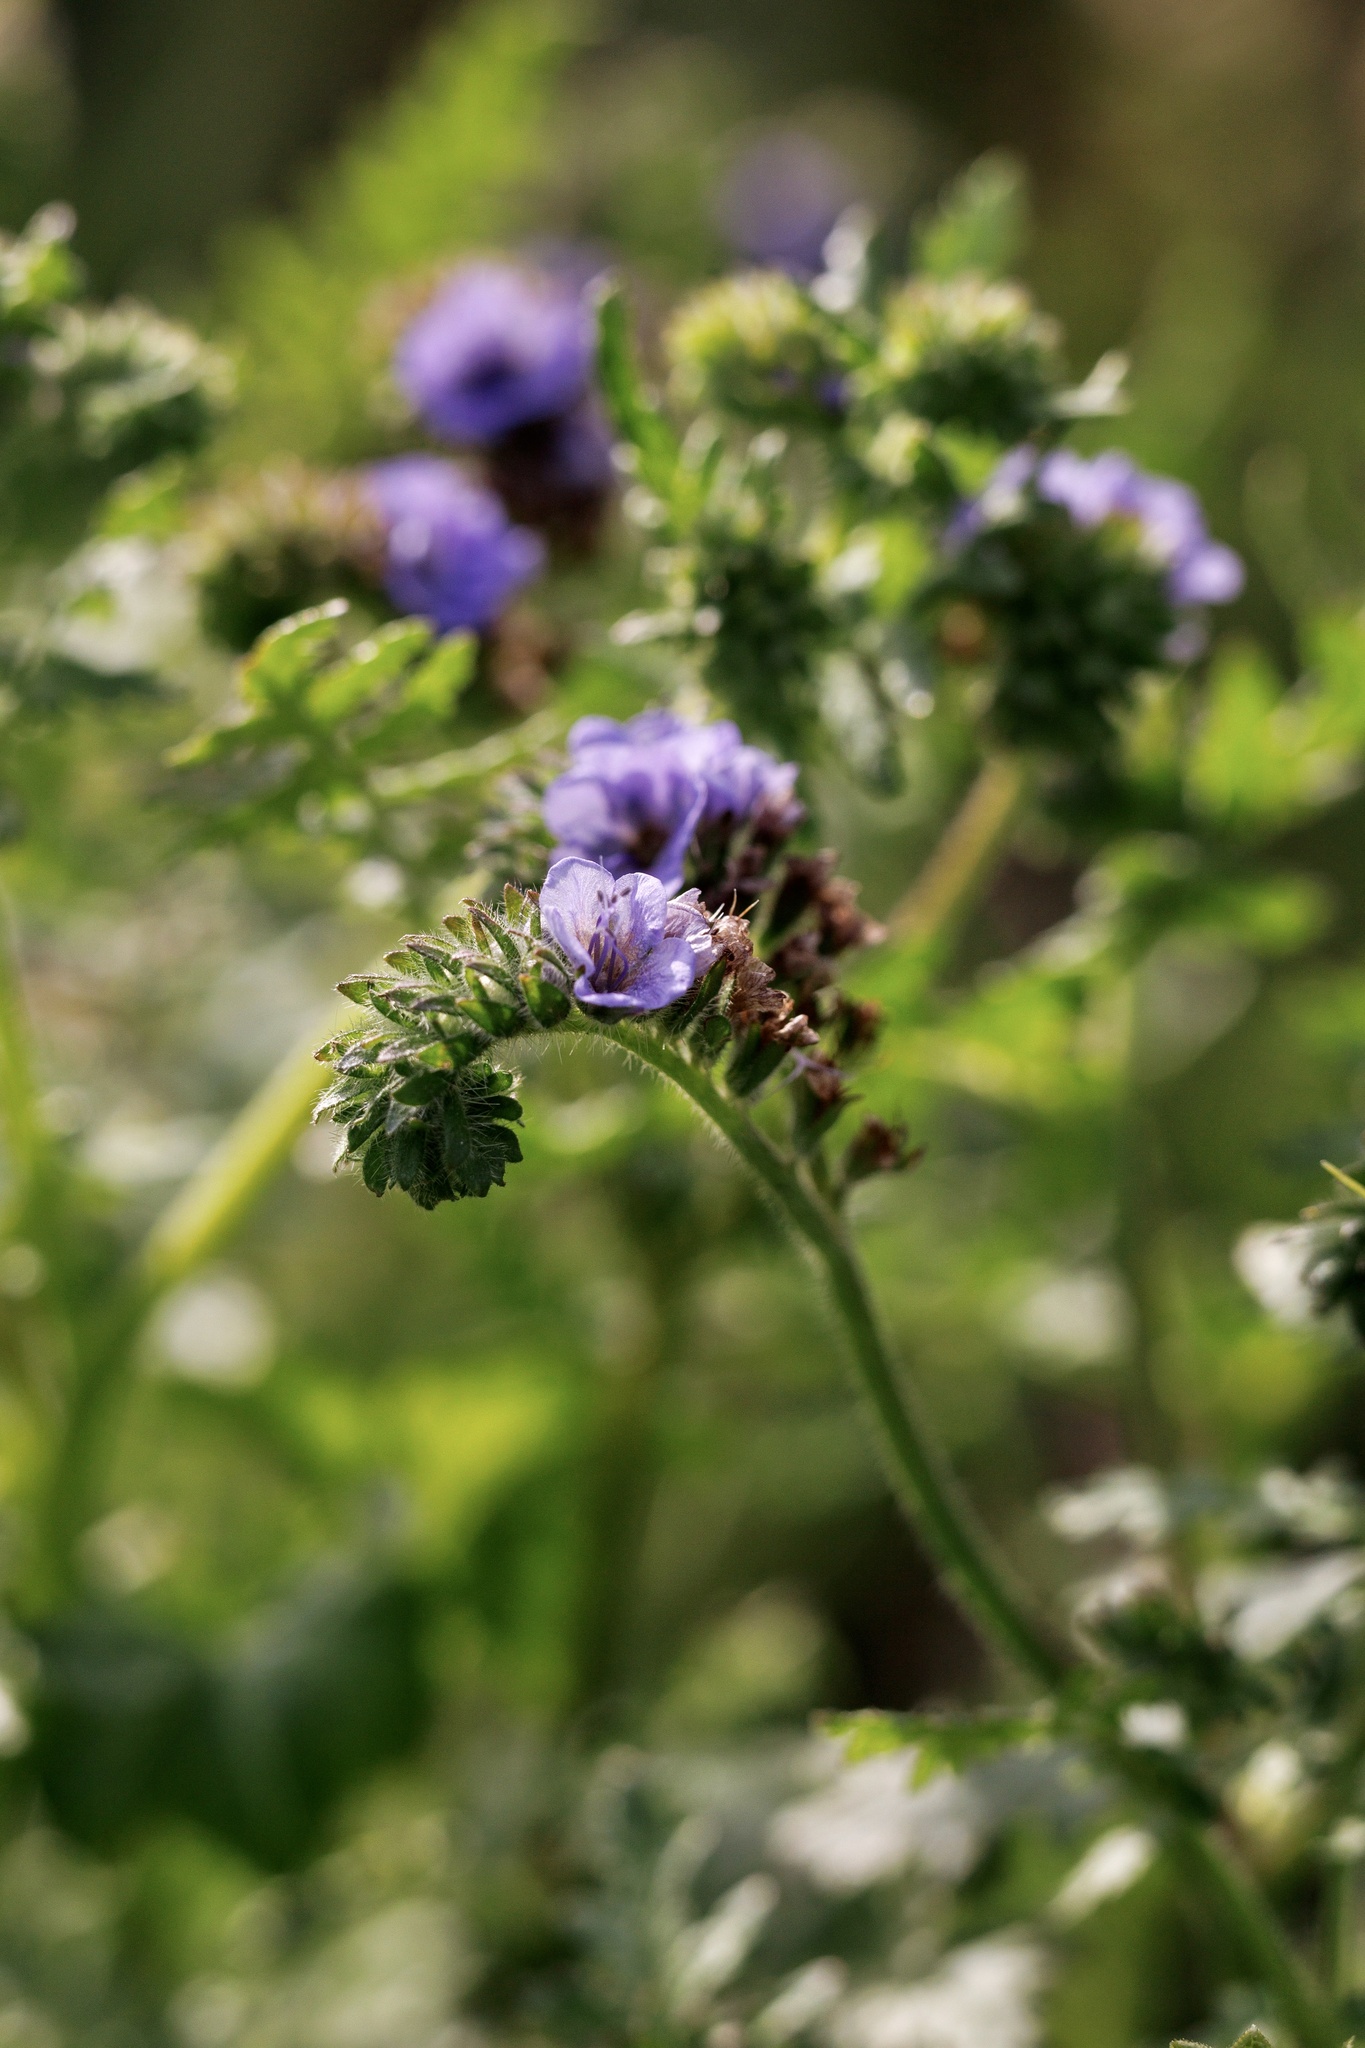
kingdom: Plantae
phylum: Tracheophyta
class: Magnoliopsida
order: Boraginales
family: Hydrophyllaceae
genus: Phacelia
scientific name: Phacelia distans
